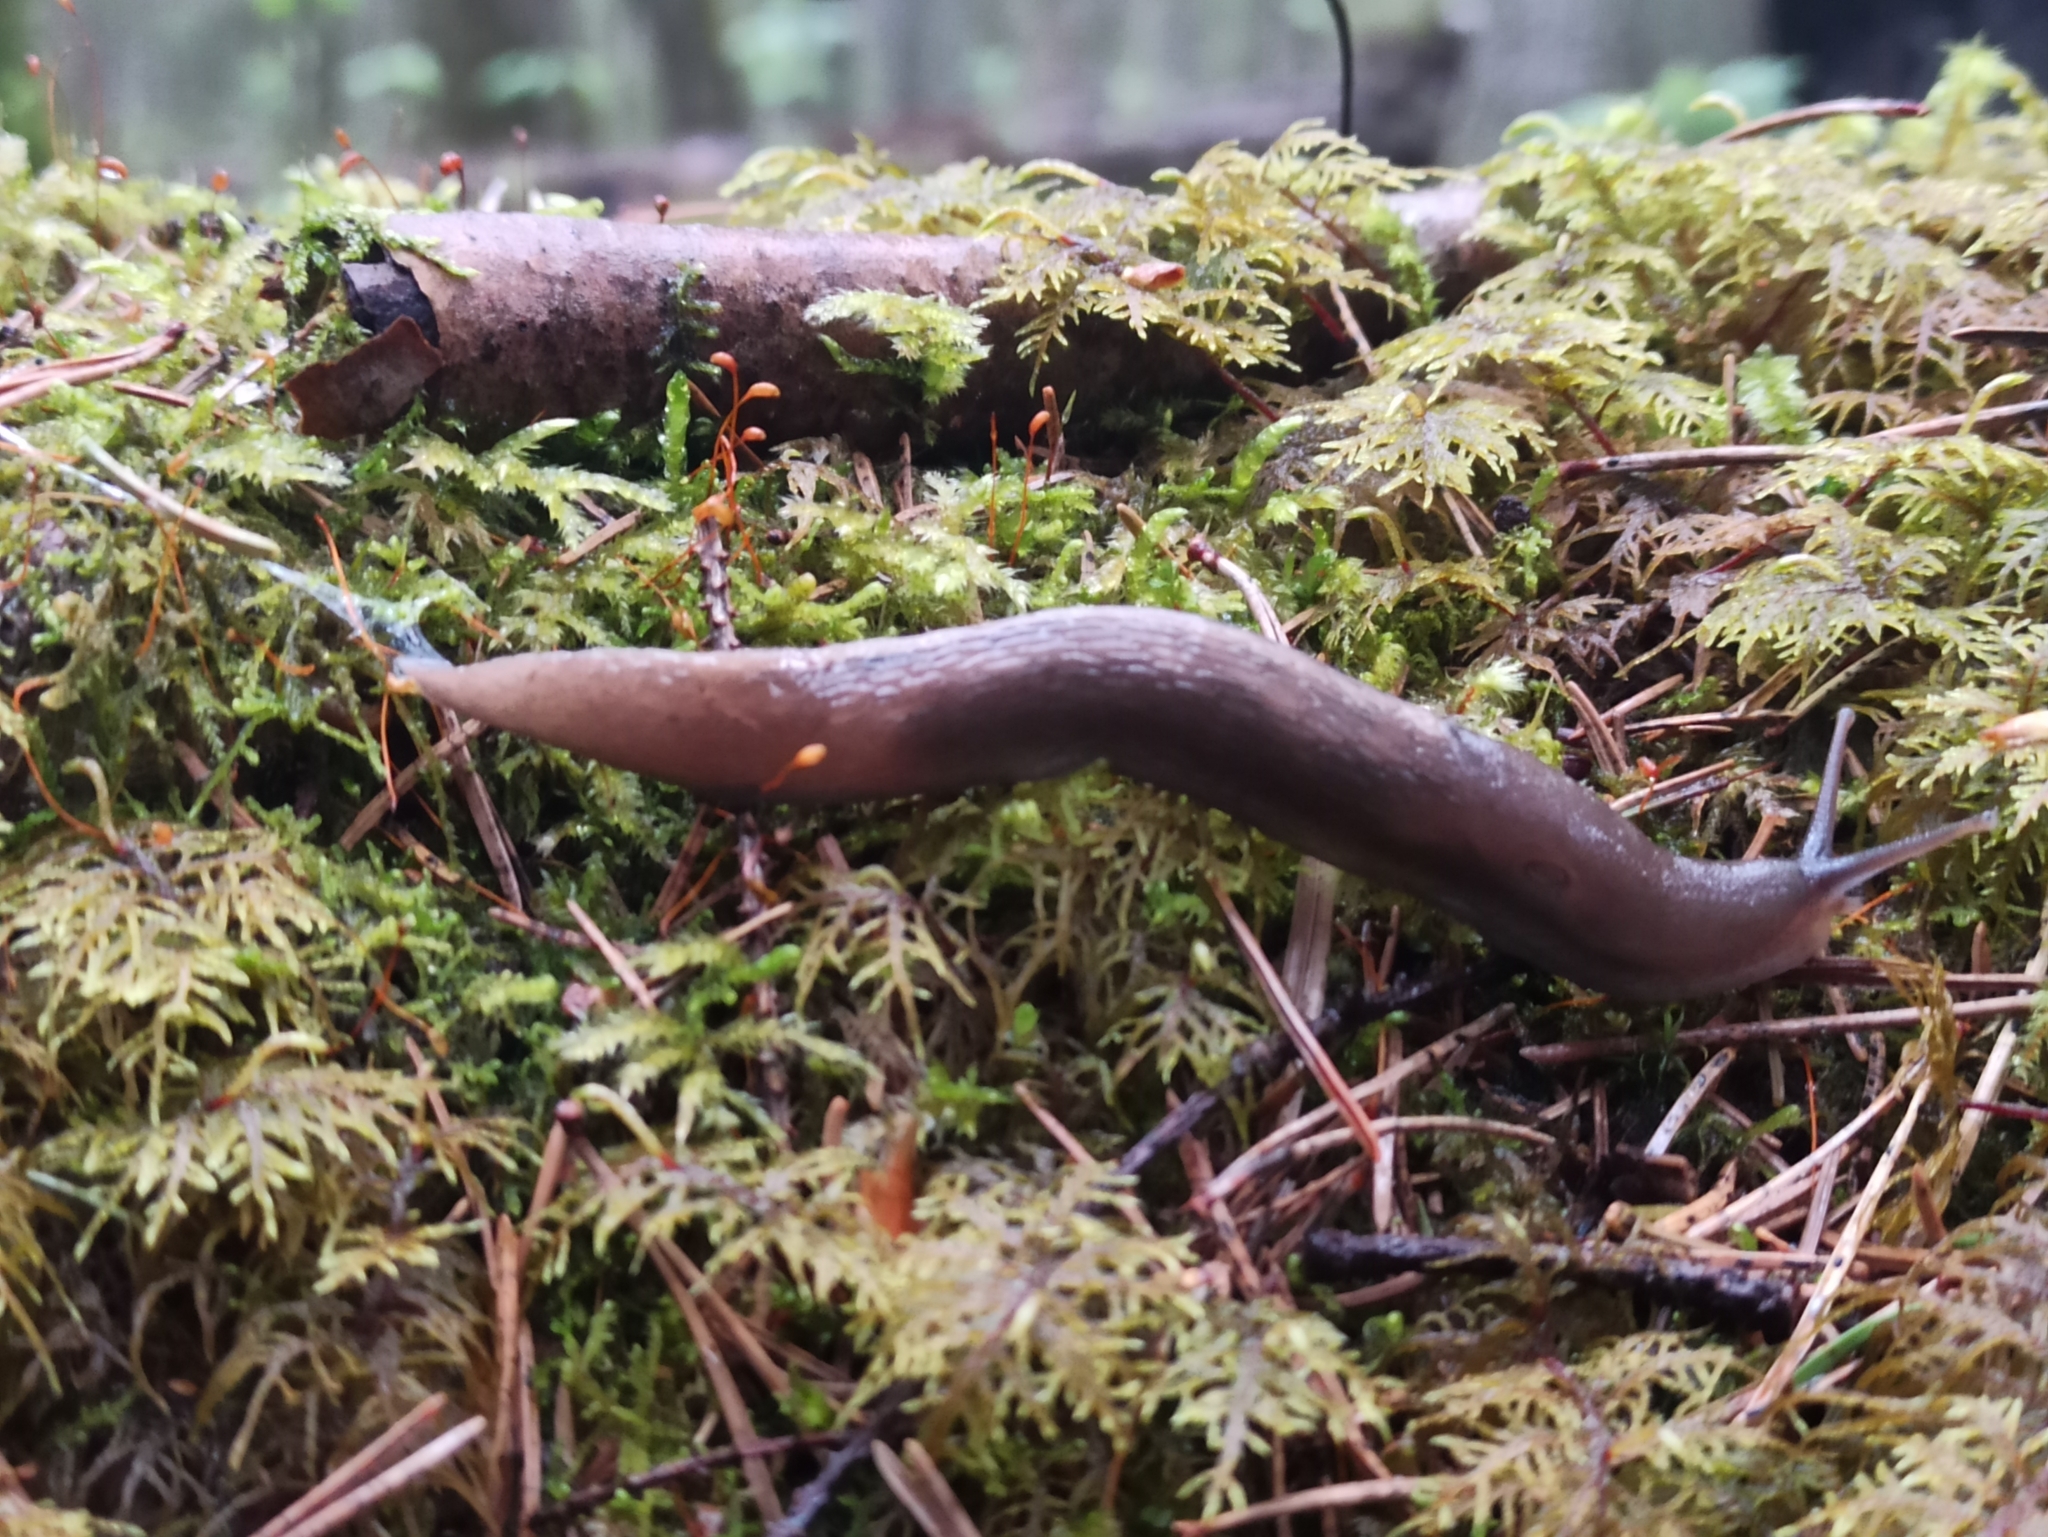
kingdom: Animalia
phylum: Mollusca
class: Gastropoda
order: Stylommatophora
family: Limacidae
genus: Limax
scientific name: Limax cinereoniger
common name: Ash-black slug
